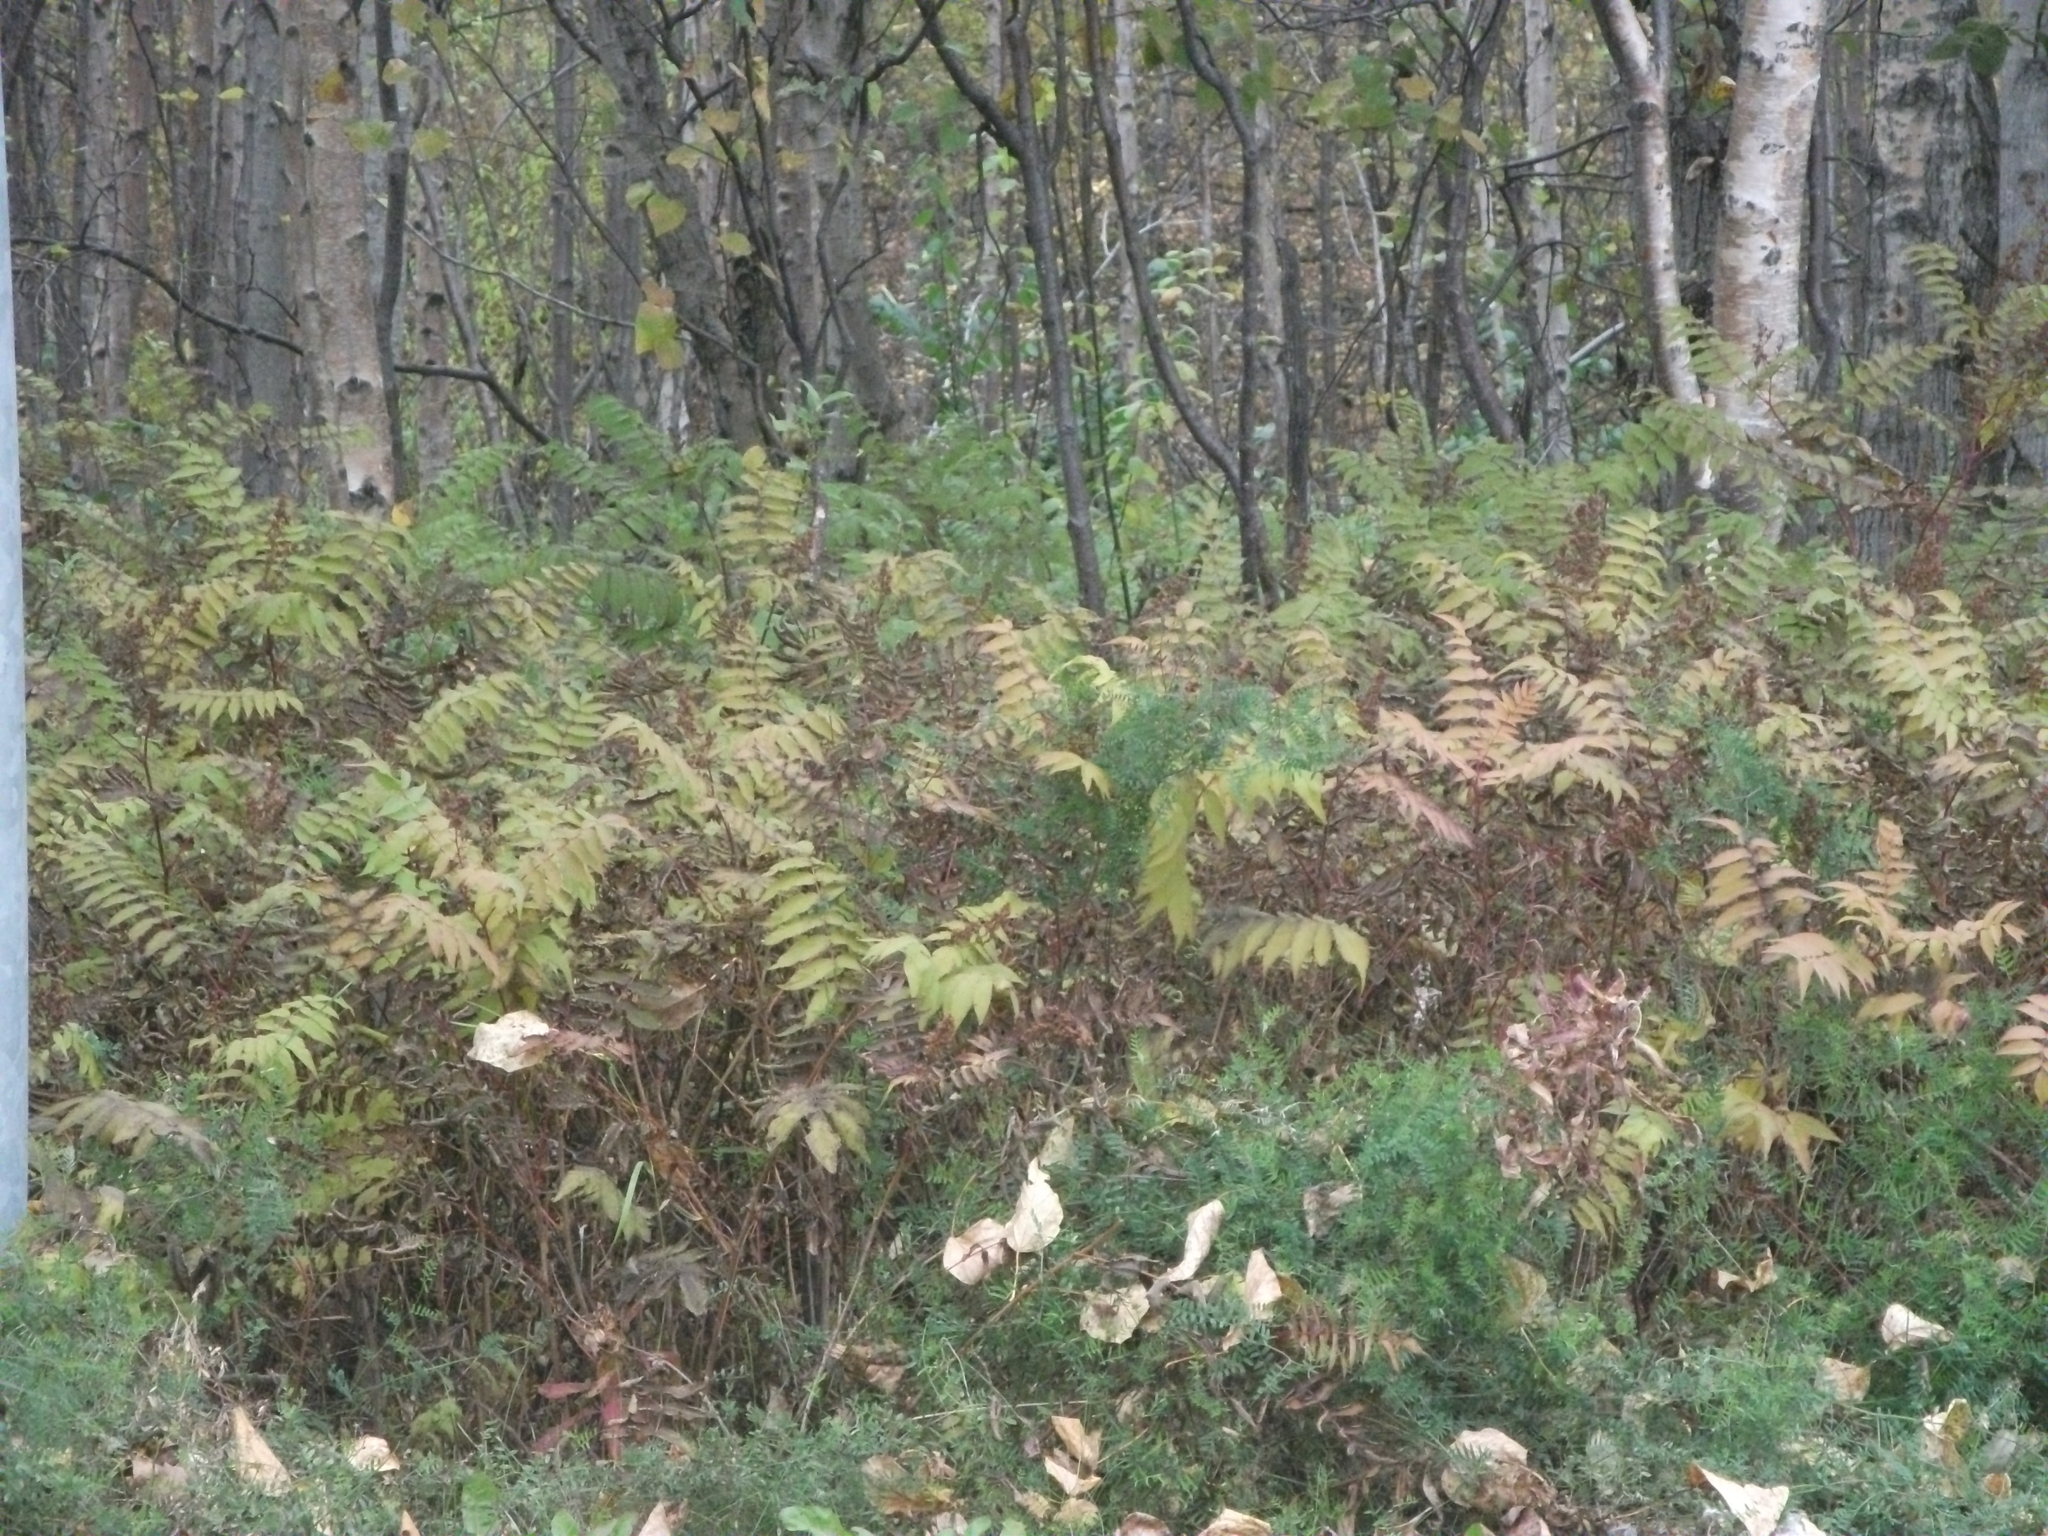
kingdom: Plantae
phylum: Tracheophyta
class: Magnoliopsida
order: Rosales
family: Rosaceae
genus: Sorbaria
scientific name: Sorbaria sorbifolia
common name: False spiraea
